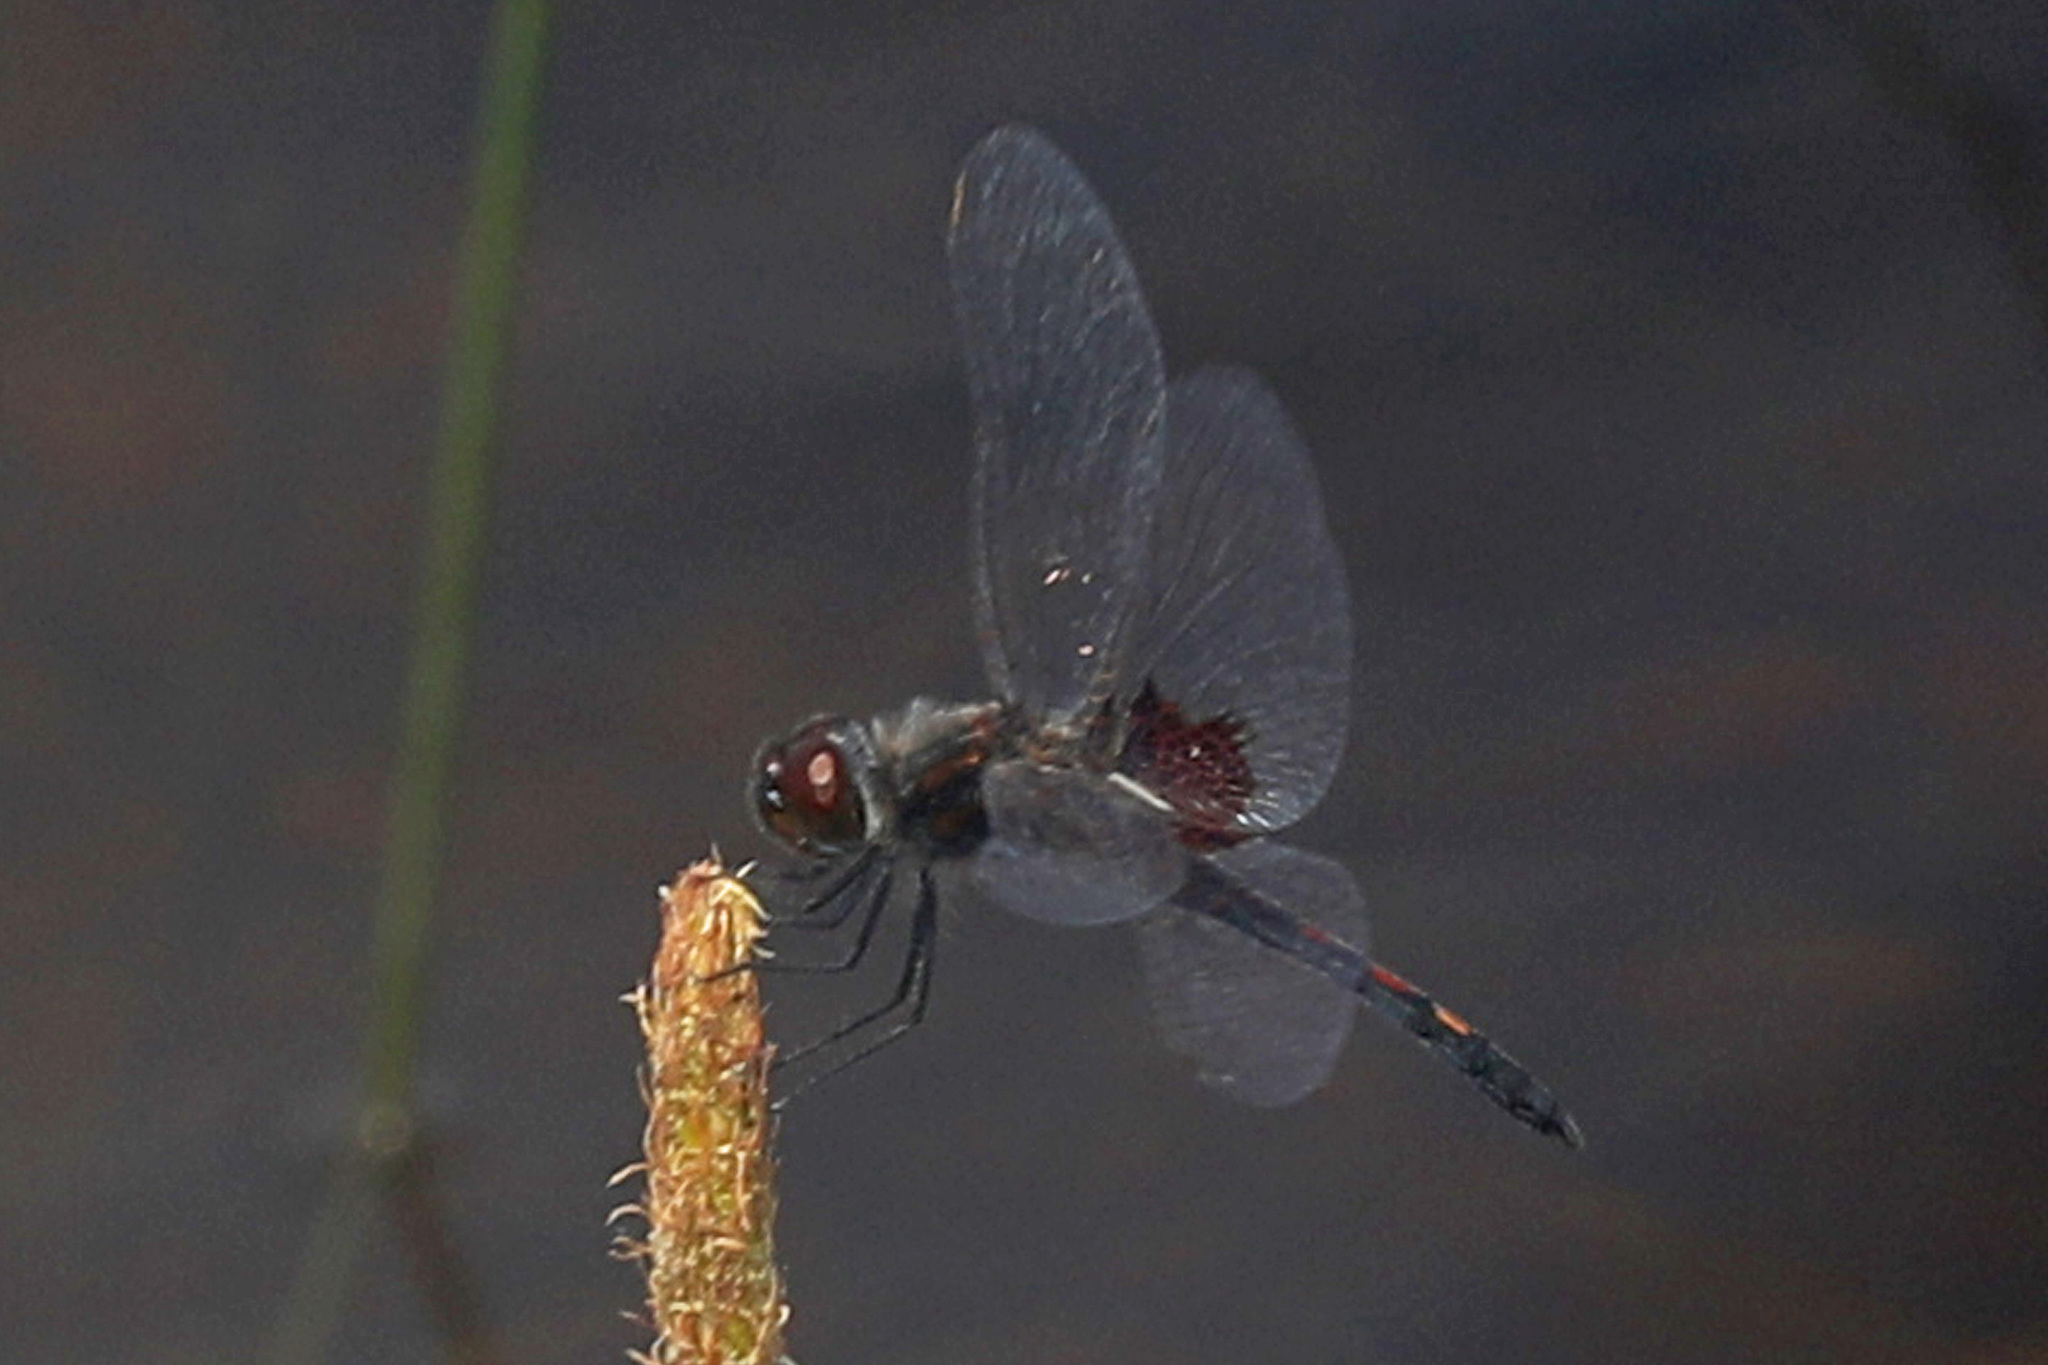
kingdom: Animalia
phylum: Arthropoda
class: Insecta
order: Odonata
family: Libellulidae
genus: Celithemis
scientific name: Celithemis ornata
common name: Ornate pennant
